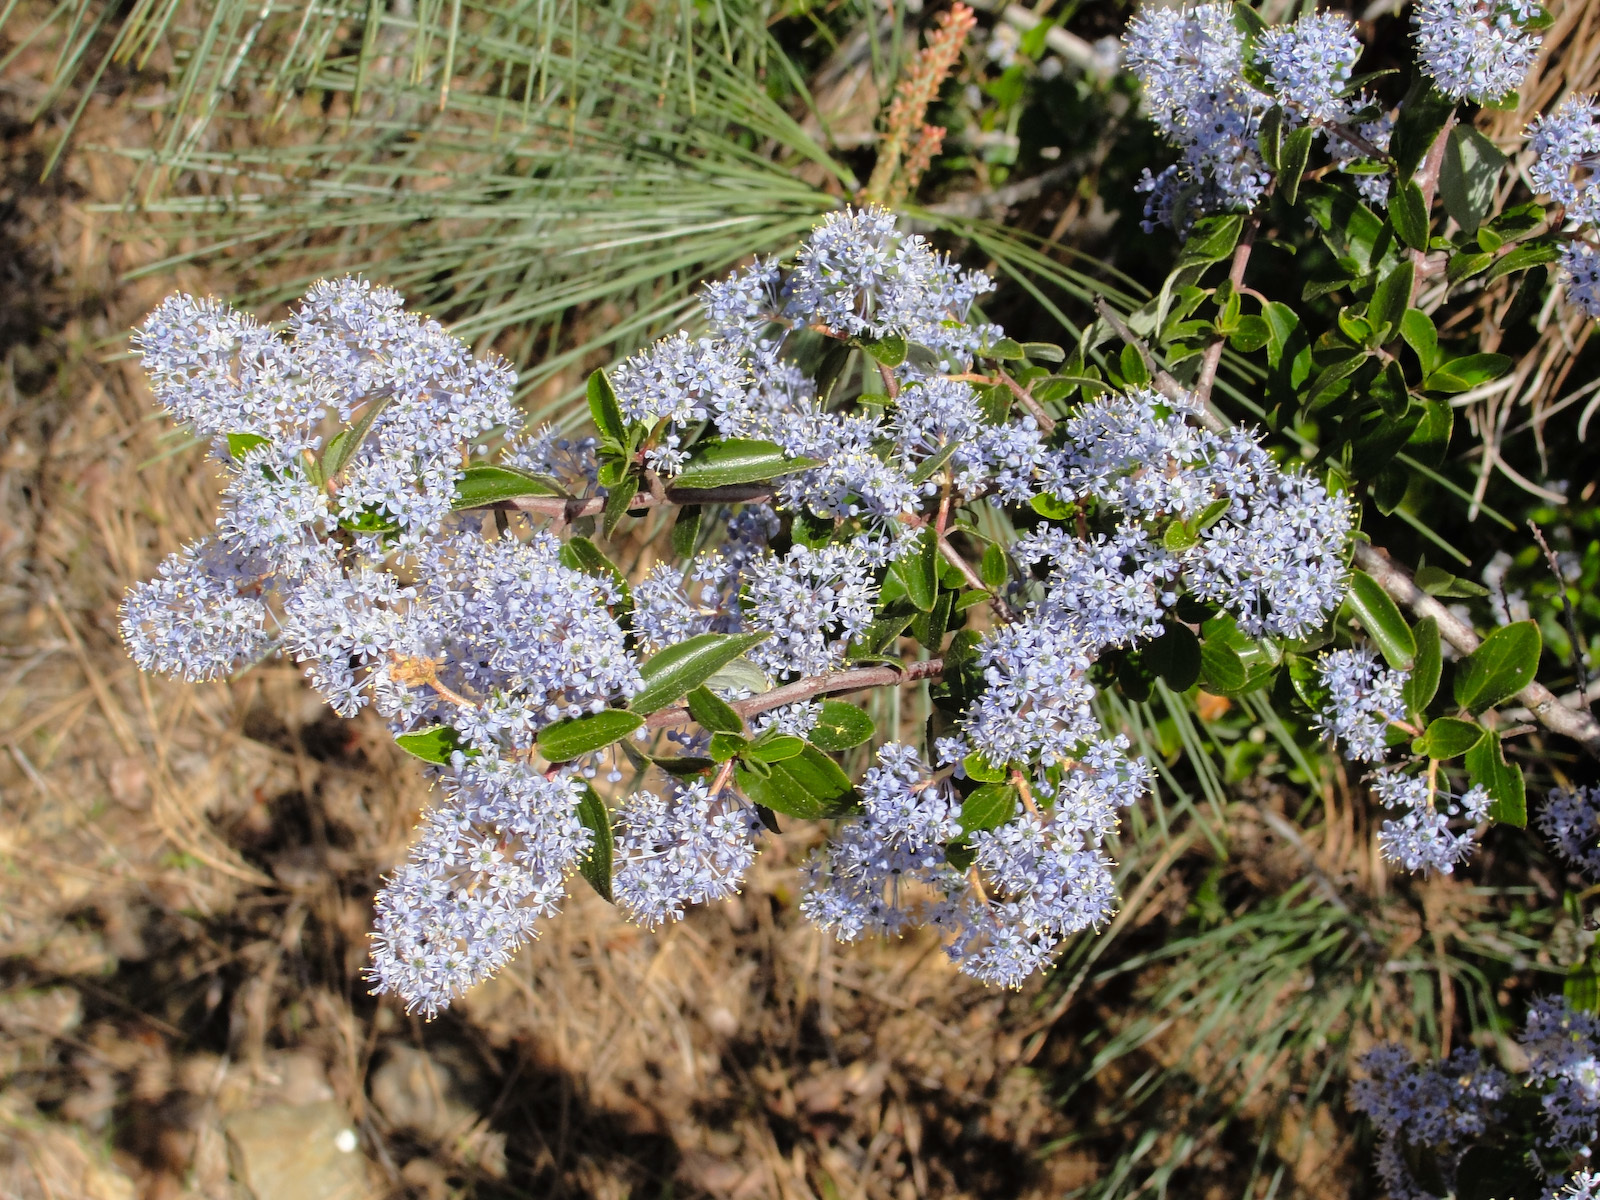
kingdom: Plantae
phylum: Tracheophyta
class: Magnoliopsida
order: Rosales
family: Rhamnaceae
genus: Ceanothus
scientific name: Ceanothus oliganthus
